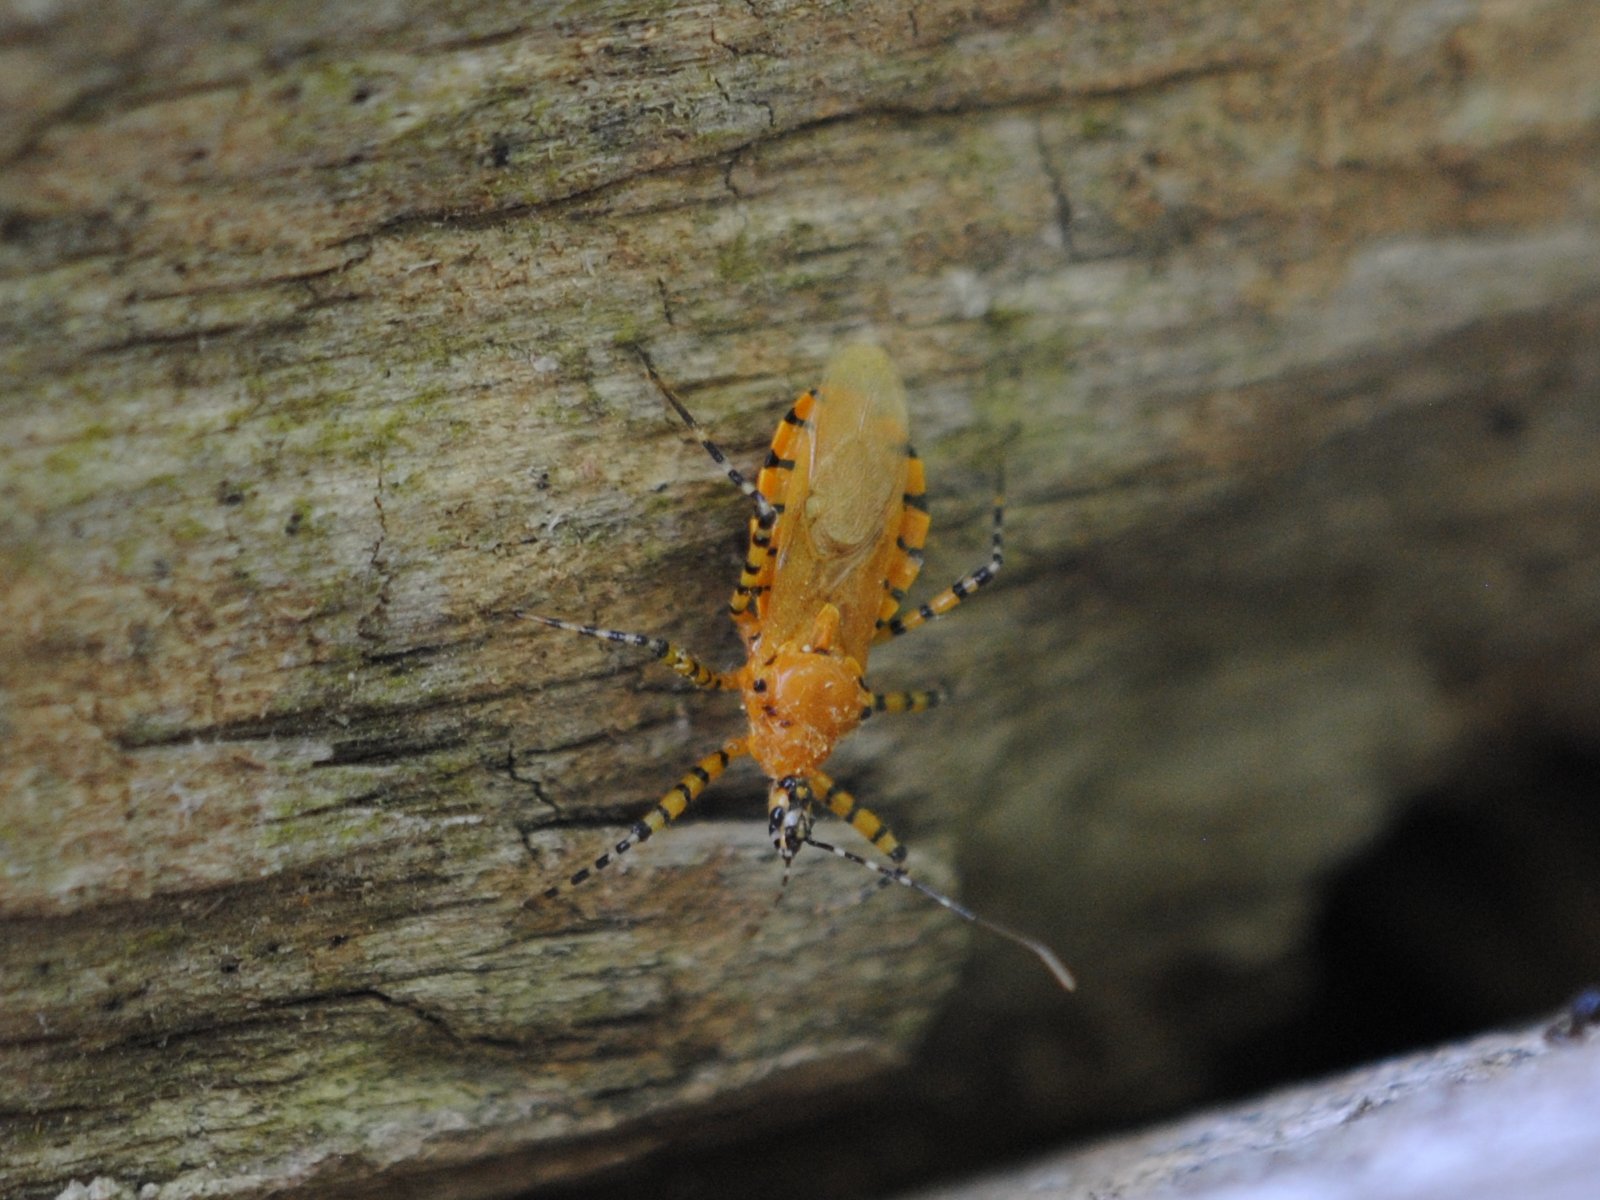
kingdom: Animalia
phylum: Arthropoda
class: Insecta
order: Hemiptera
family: Reduviidae
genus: Pselliopus
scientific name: Pselliopus barberi
